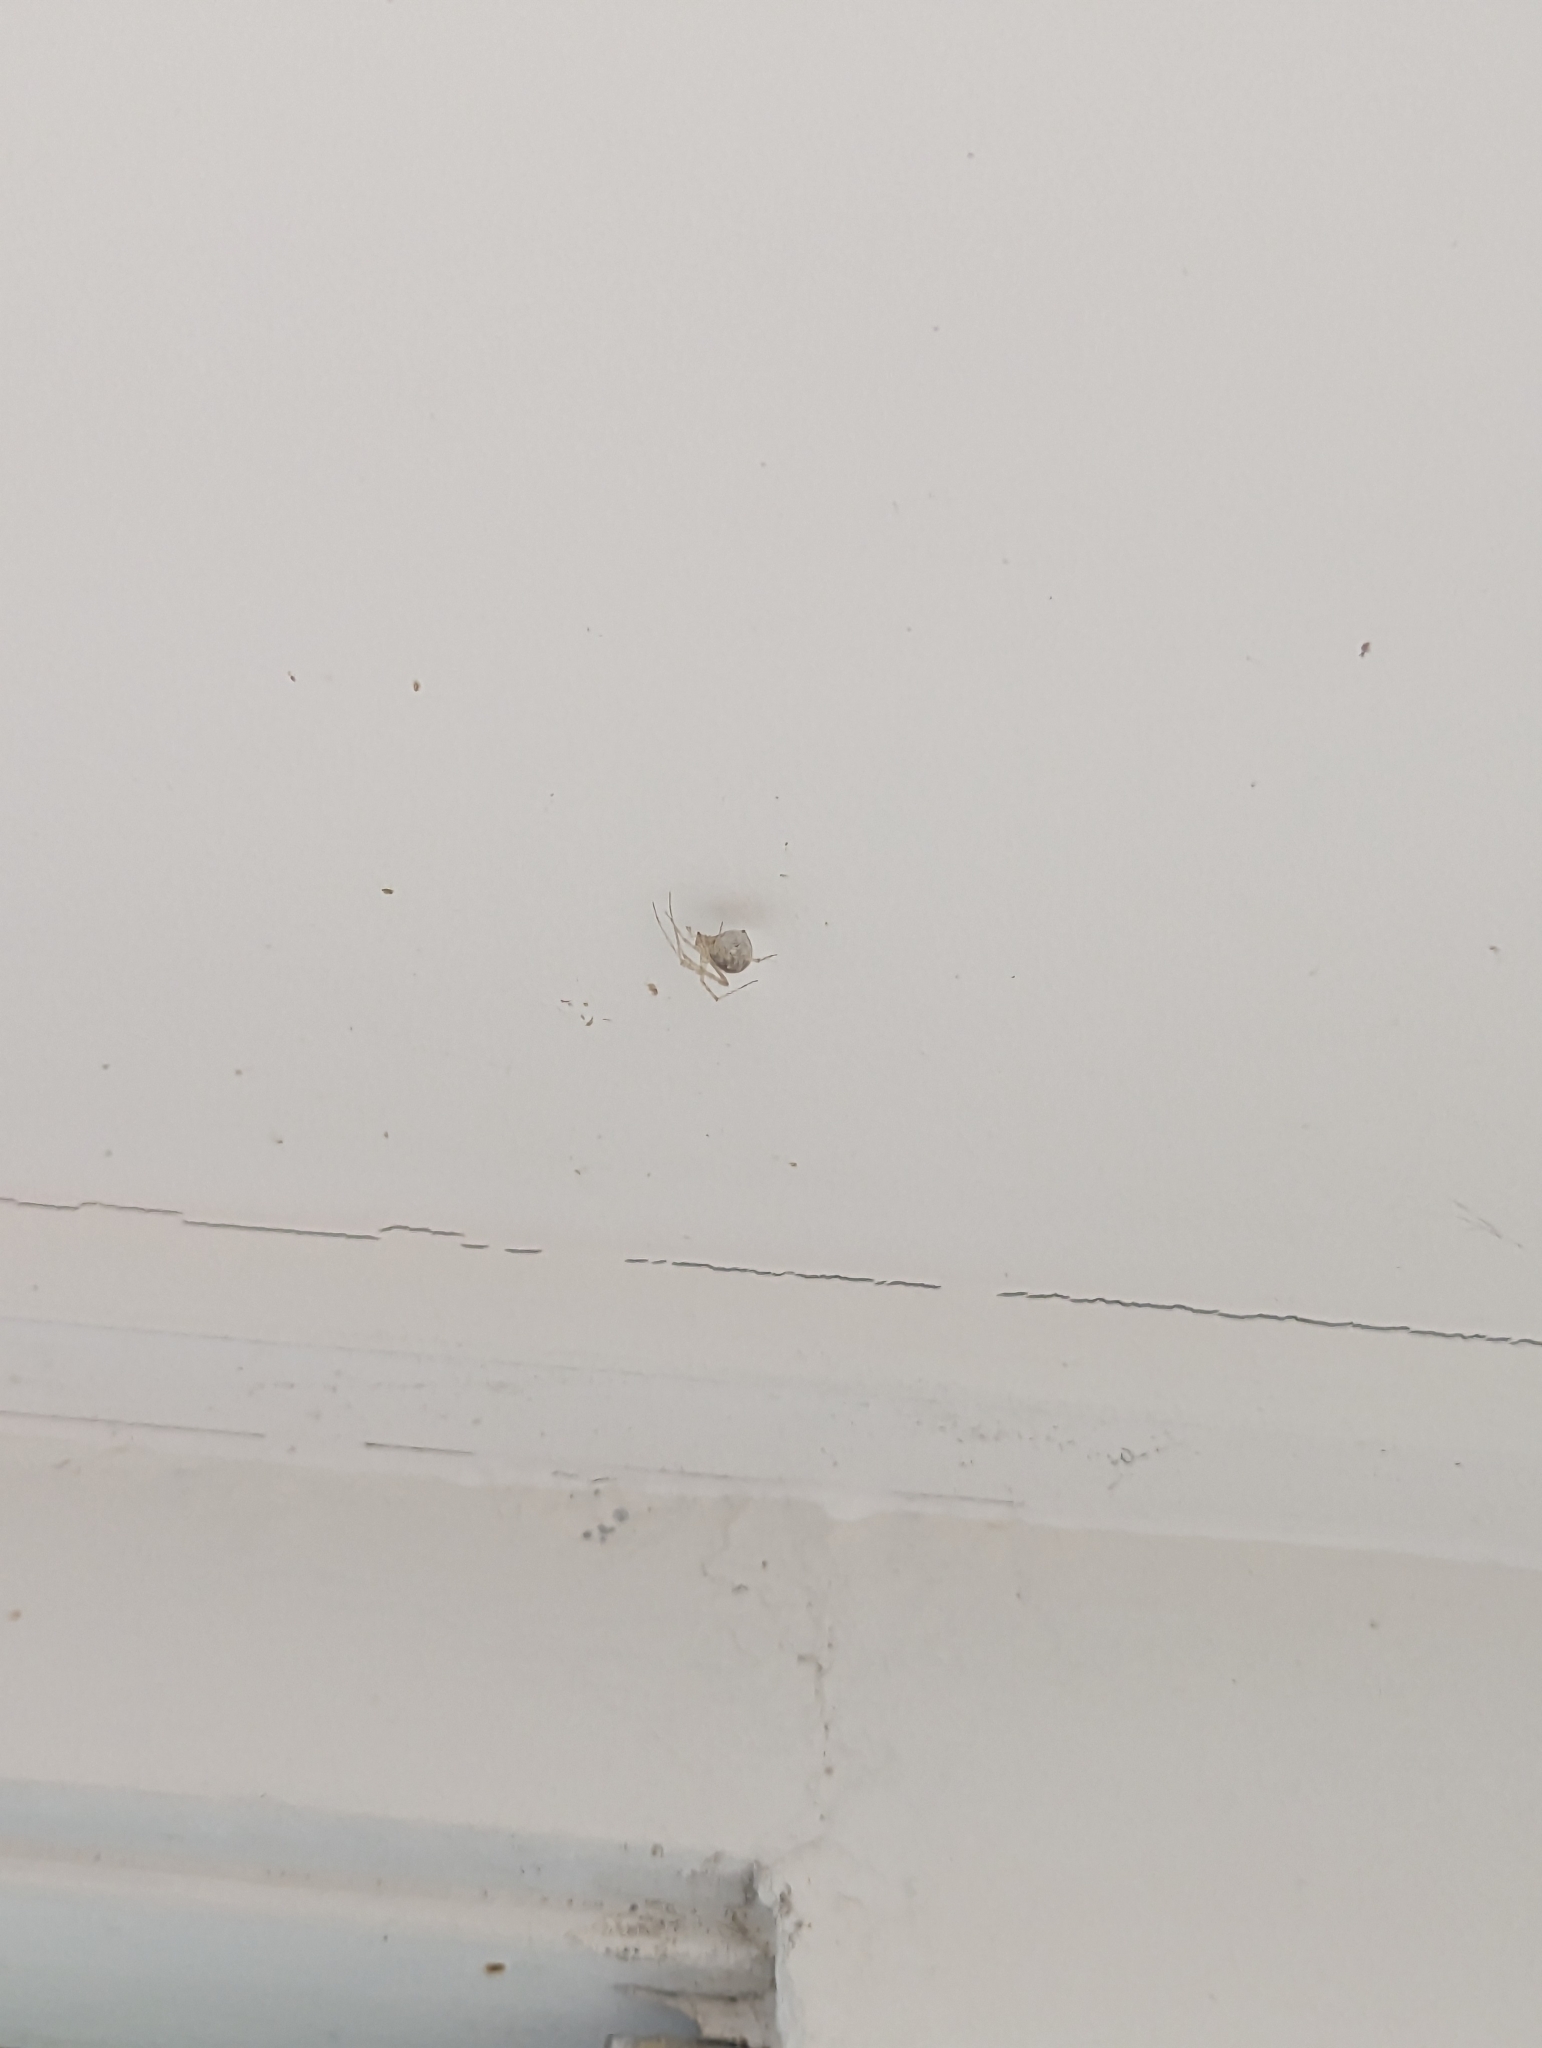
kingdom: Animalia
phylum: Arthropoda
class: Arachnida
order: Araneae
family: Theridiidae
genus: Cryptachaea
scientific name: Cryptachaea gigantipes
